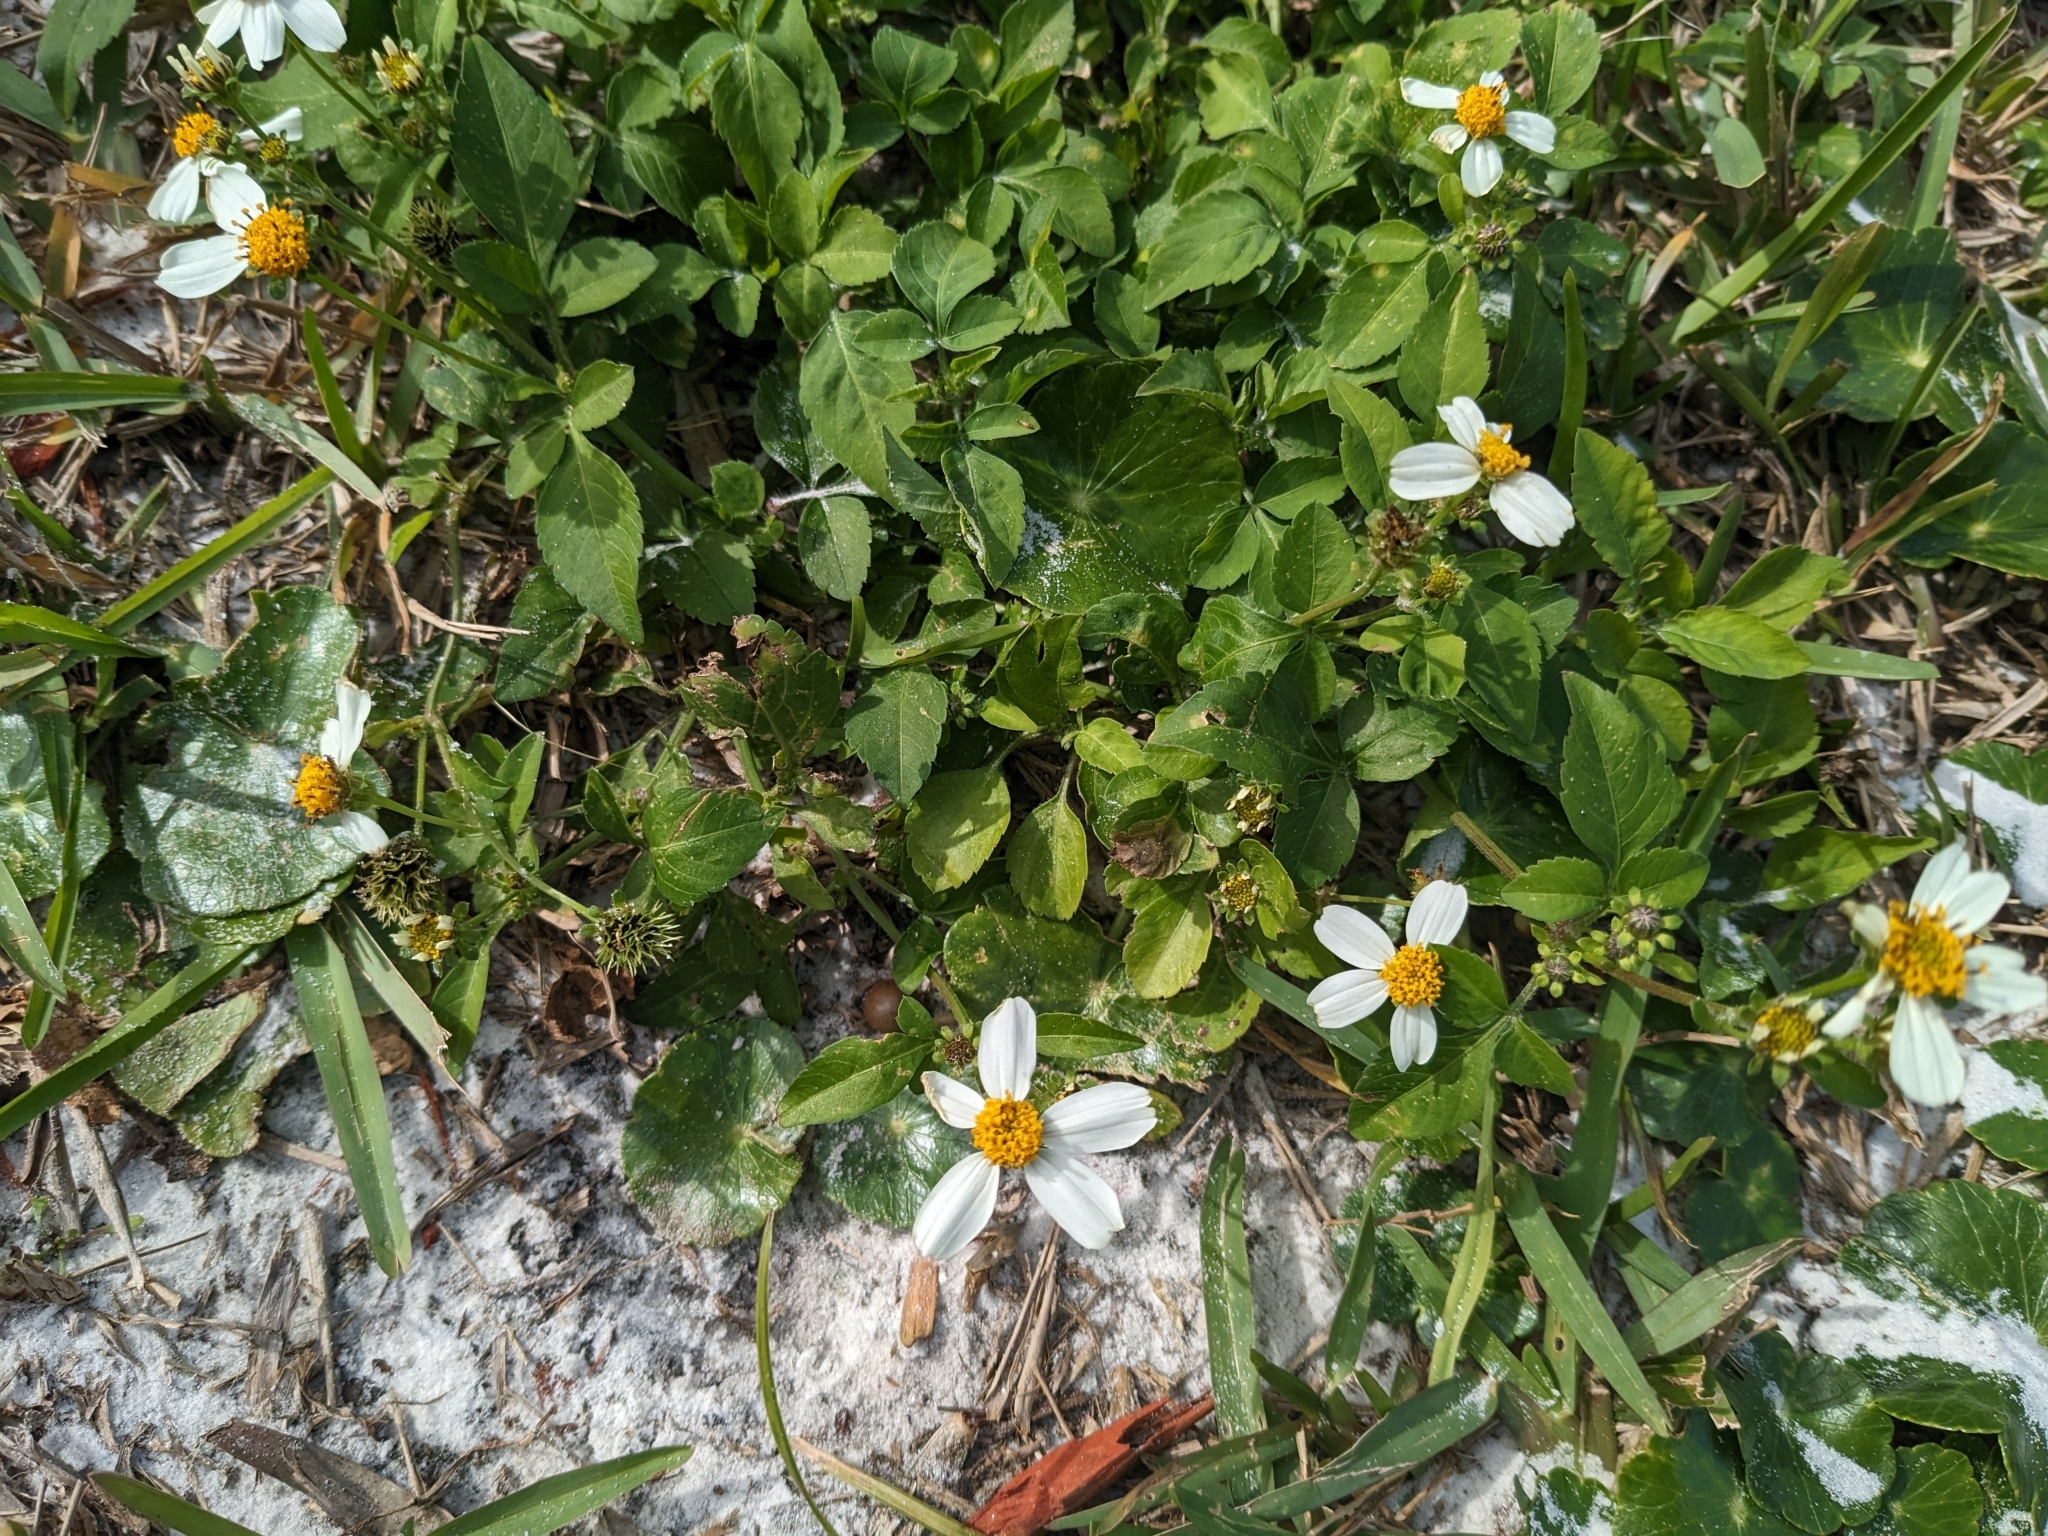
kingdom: Plantae
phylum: Tracheophyta
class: Magnoliopsida
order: Asterales
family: Asteraceae
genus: Bidens
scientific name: Bidens alba
